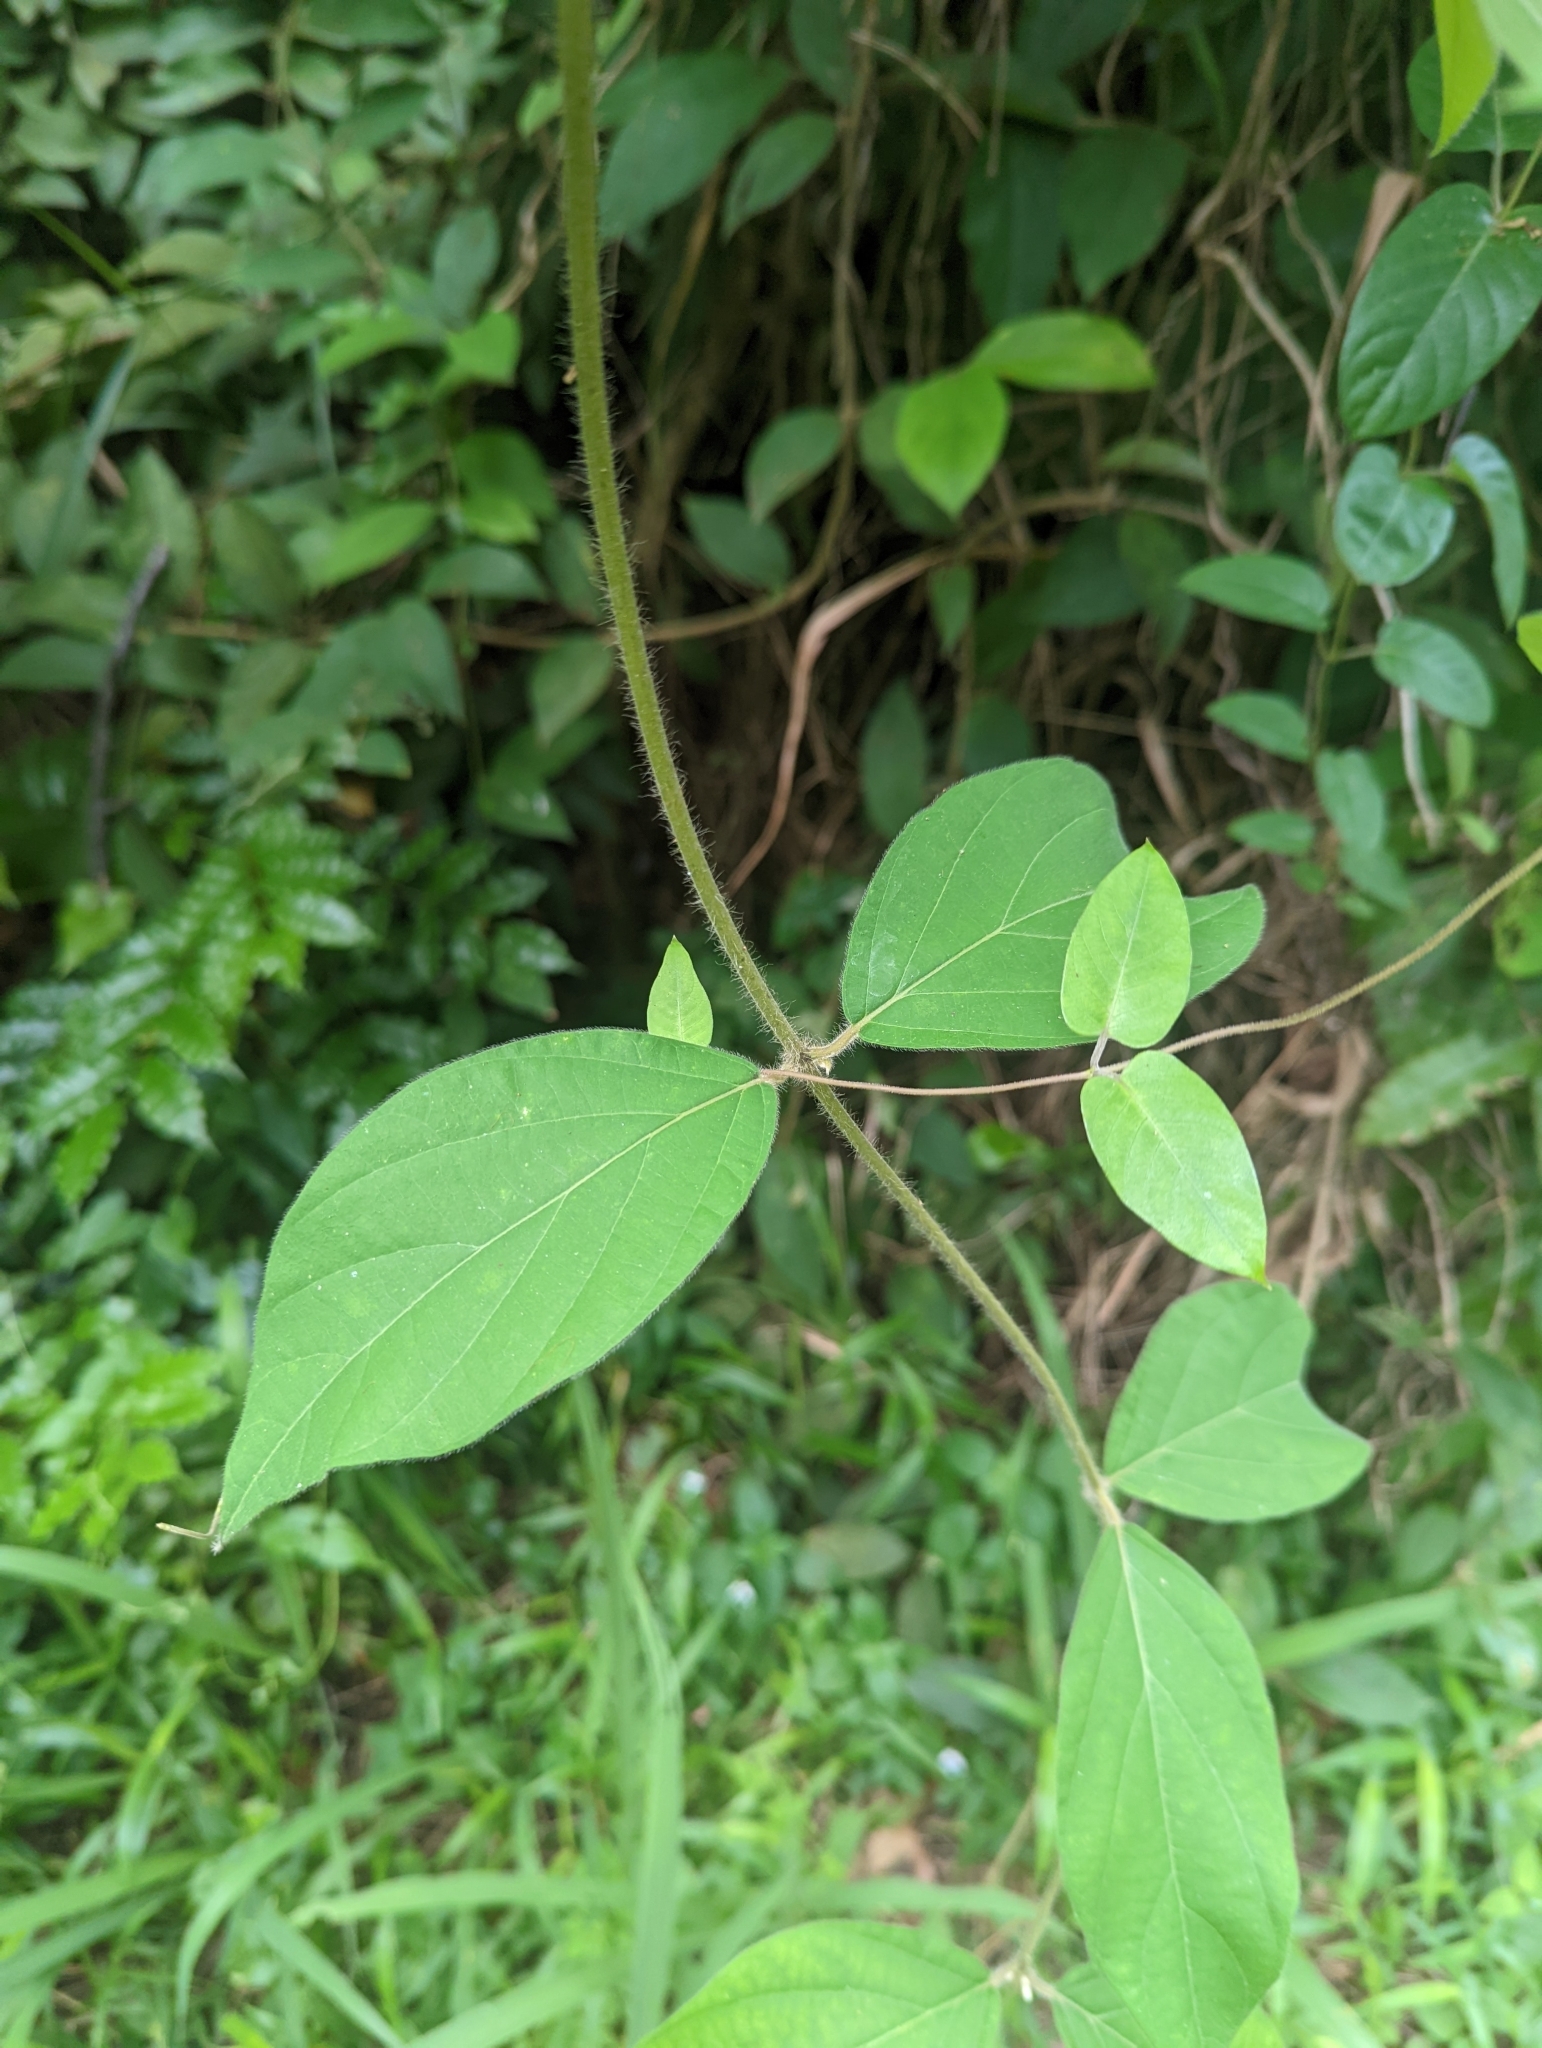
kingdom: Plantae
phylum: Tracheophyta
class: Magnoliopsida
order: Lamiales
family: Lamiaceae
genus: Congea
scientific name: Congea tomentosa
